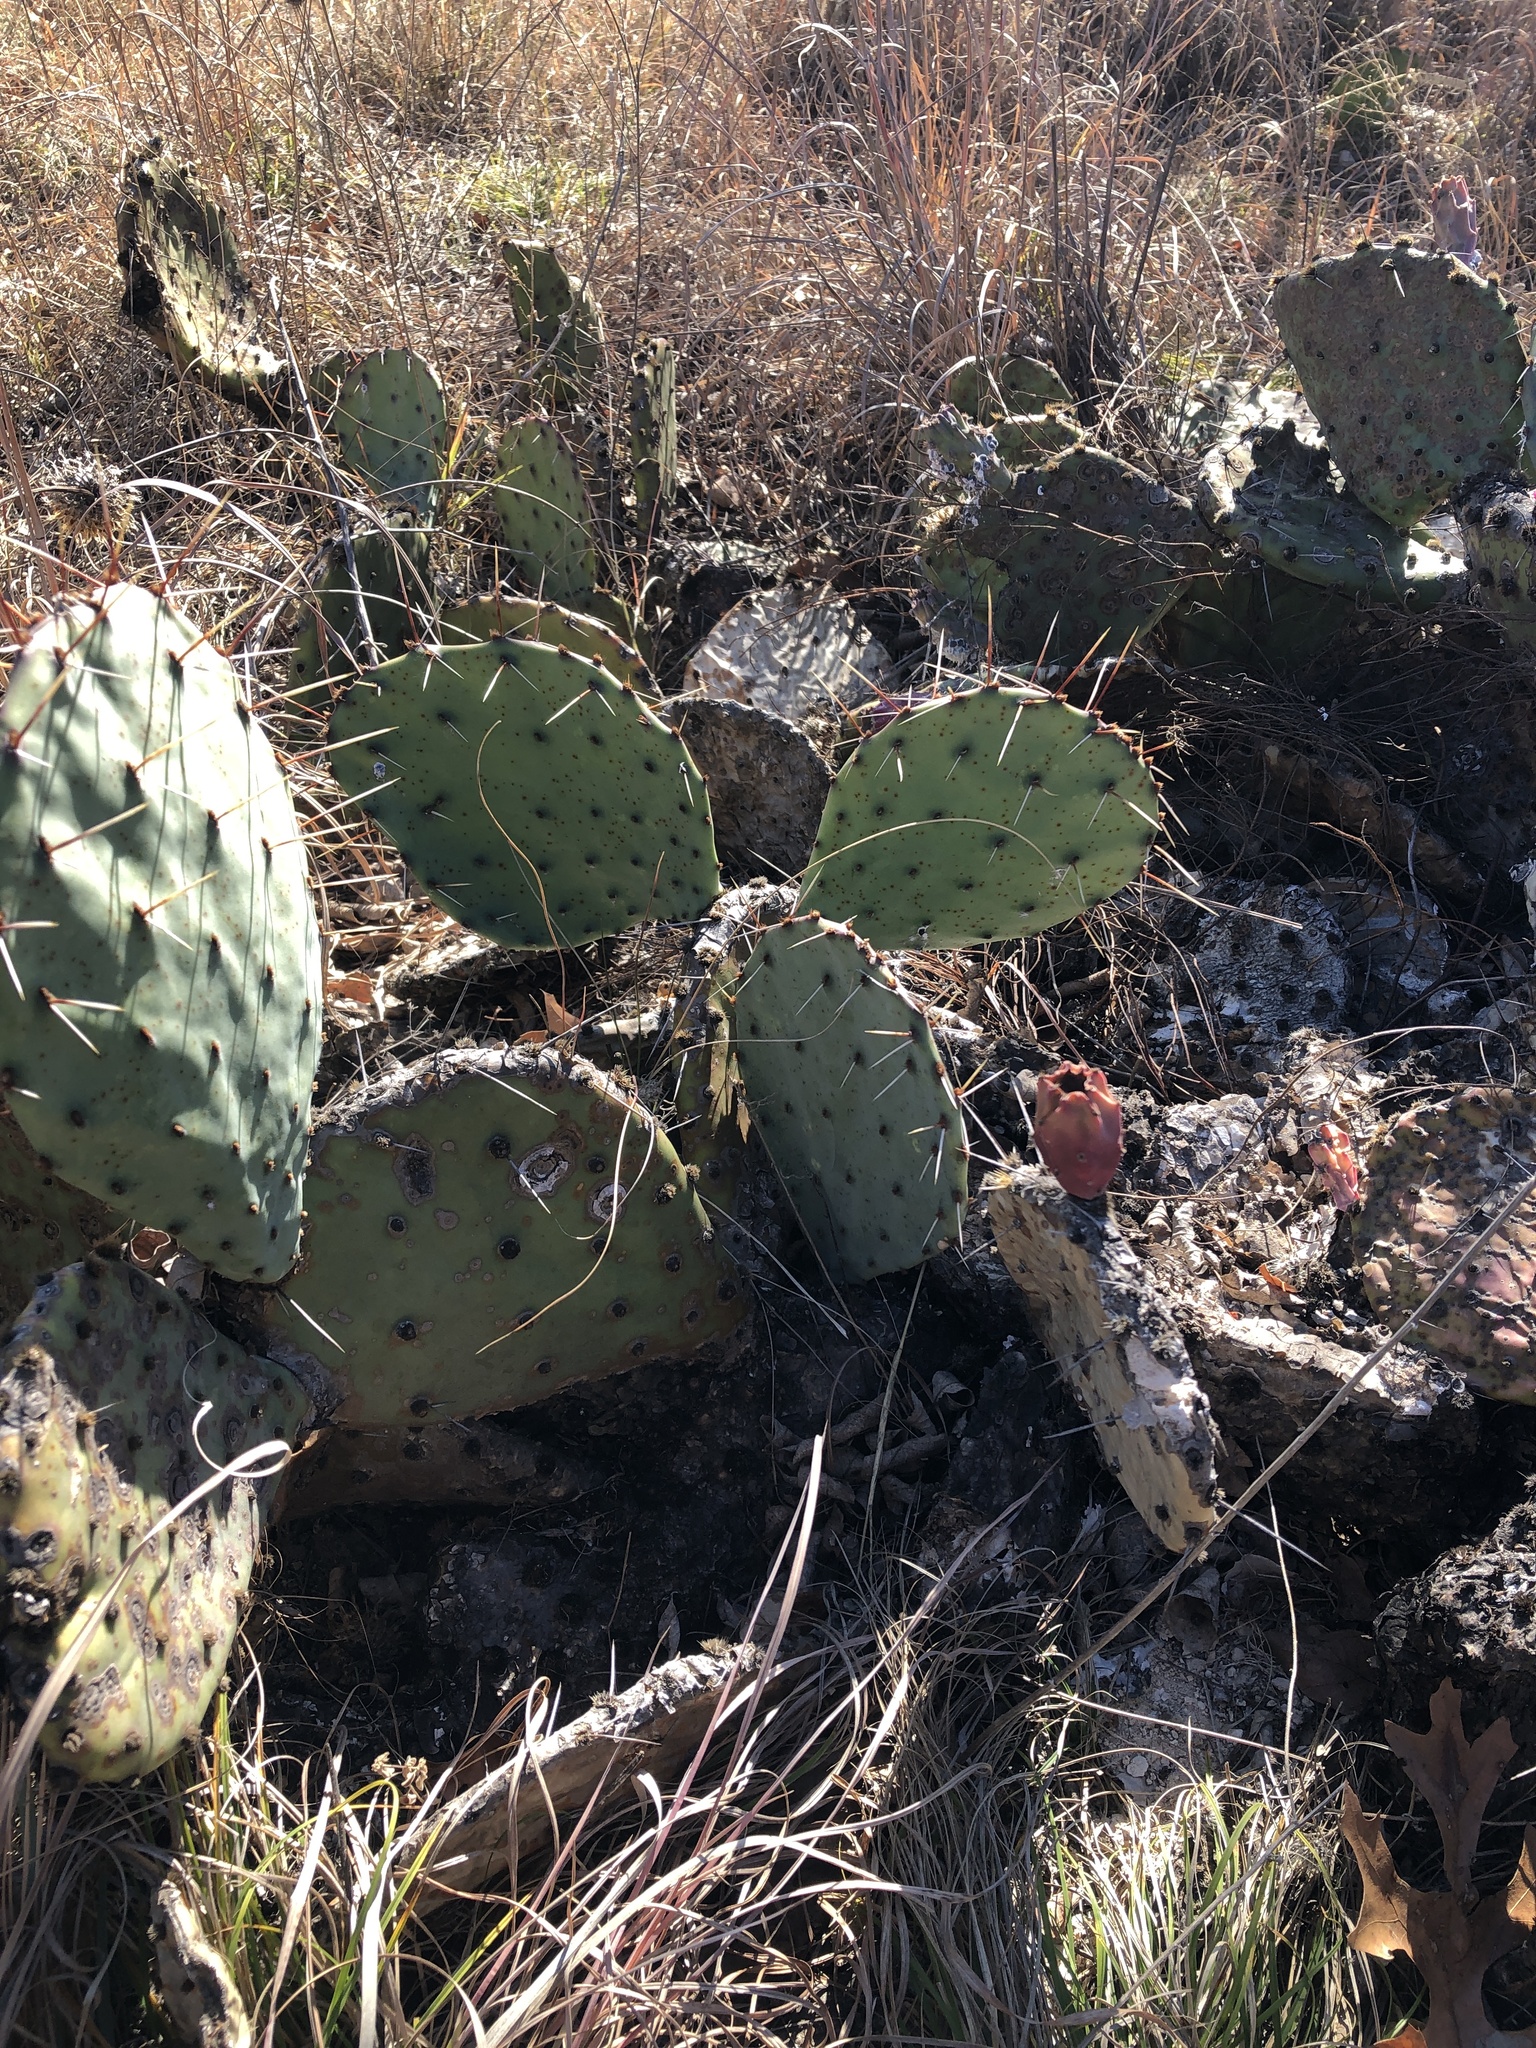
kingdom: Plantae
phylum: Tracheophyta
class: Magnoliopsida
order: Caryophyllales
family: Cactaceae
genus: Opuntia
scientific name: Opuntia phaeacantha
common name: New mexico prickly-pear
